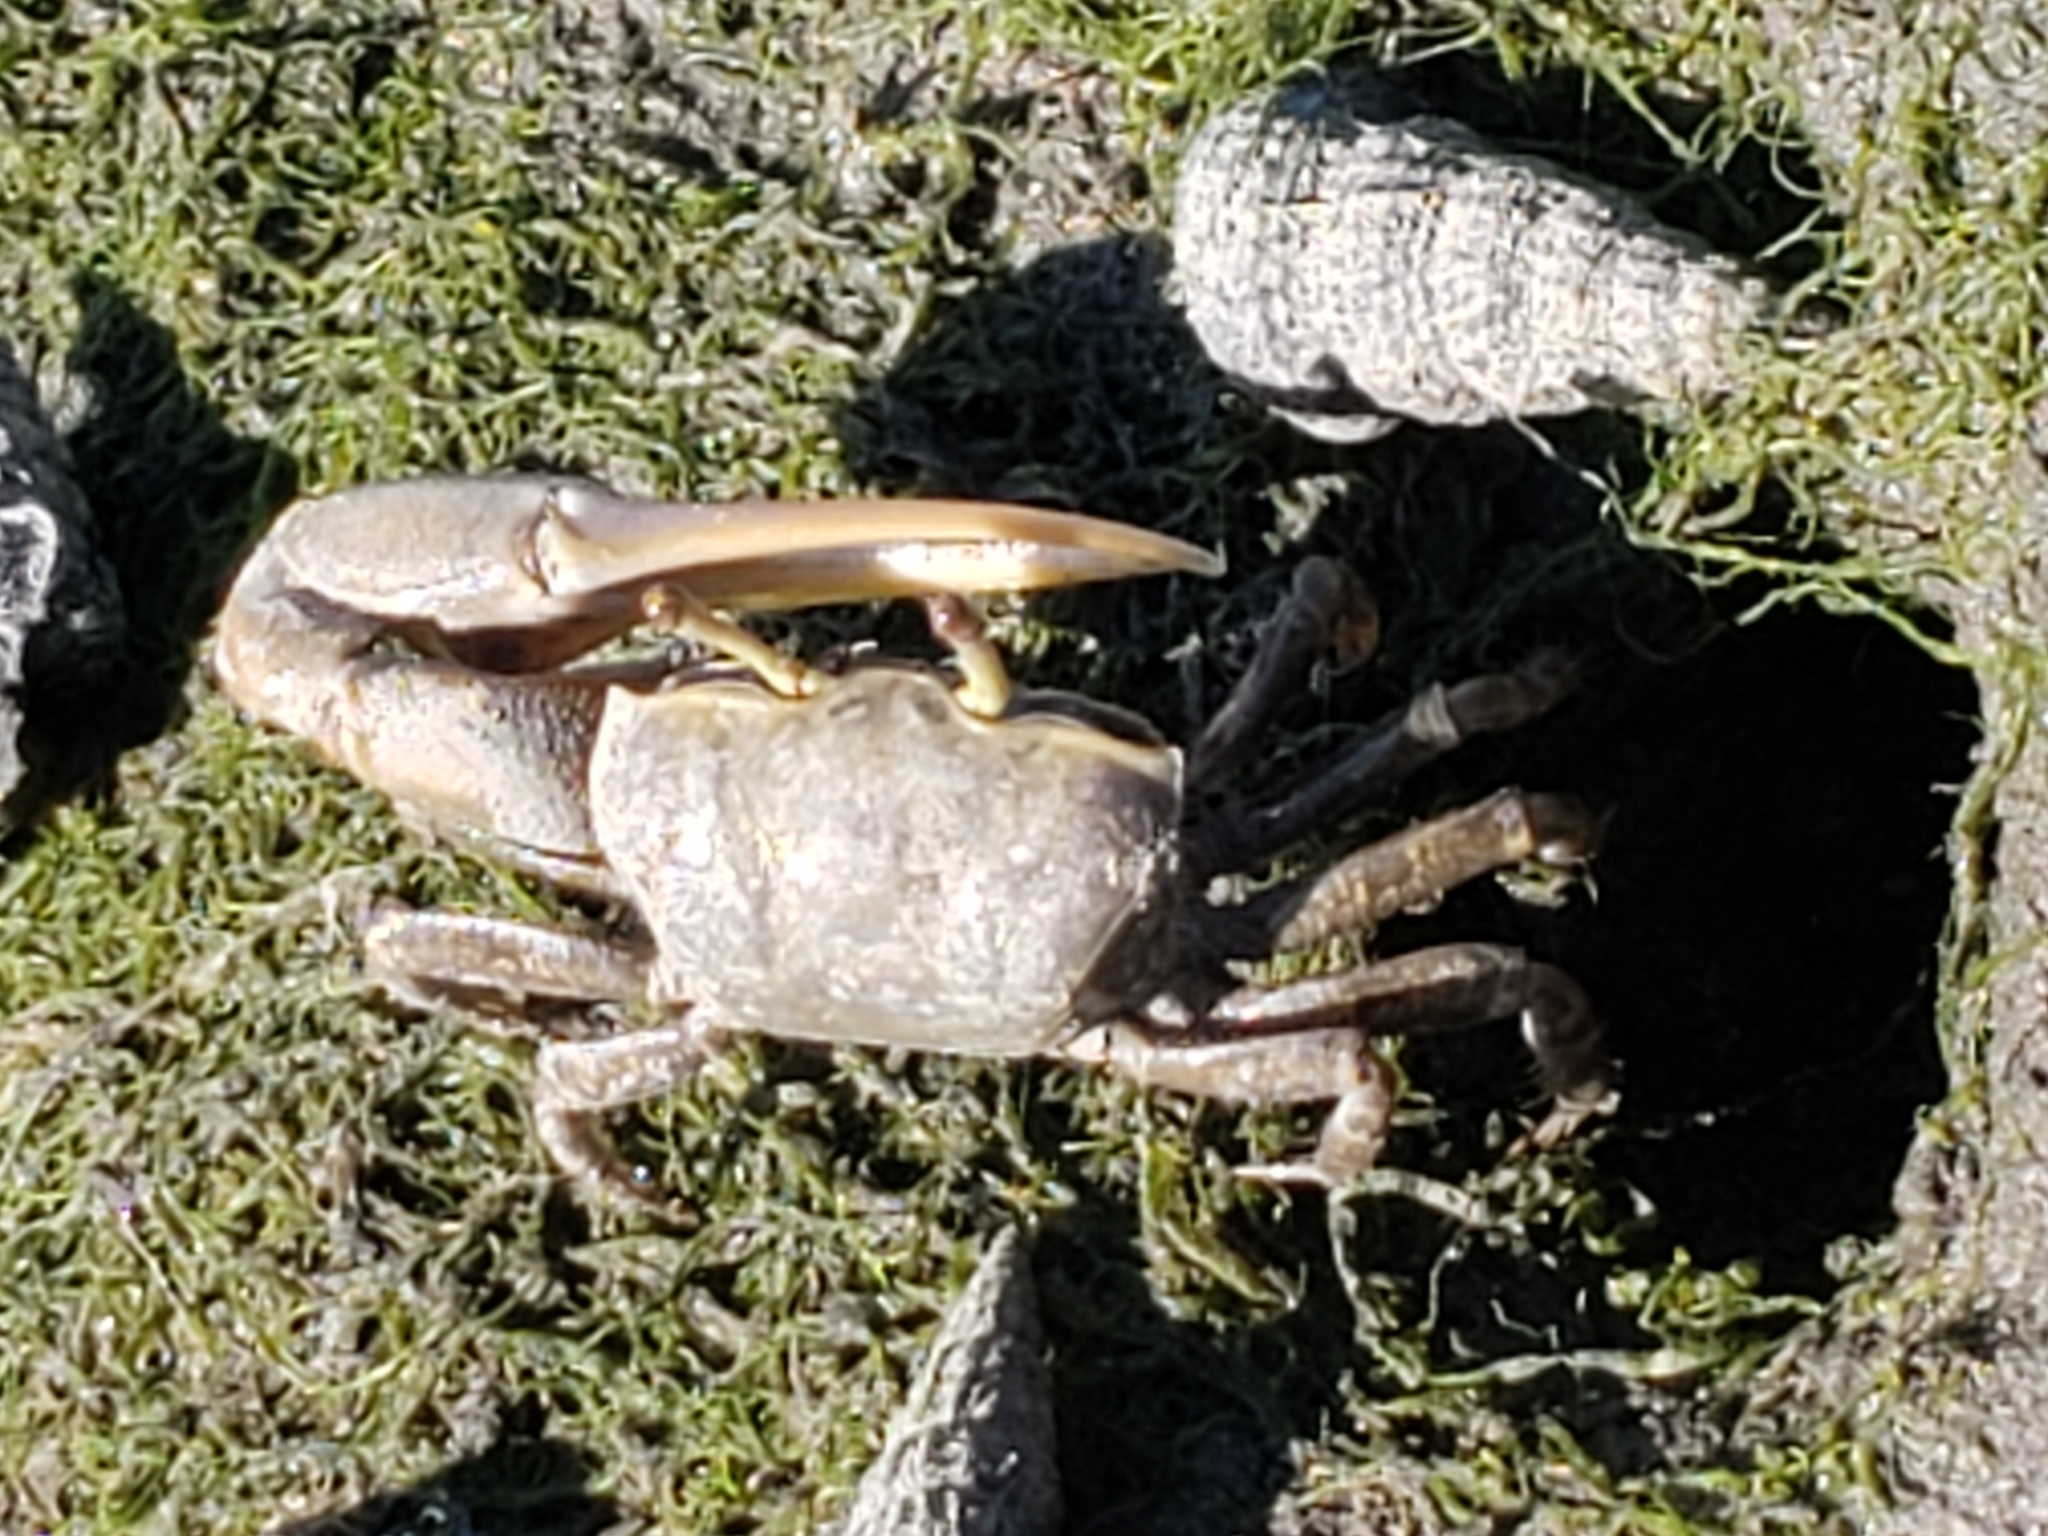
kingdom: Animalia
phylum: Arthropoda
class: Malacostraca
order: Decapoda
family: Ocypodidae
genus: Leptuca
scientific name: Leptuca crenulata
